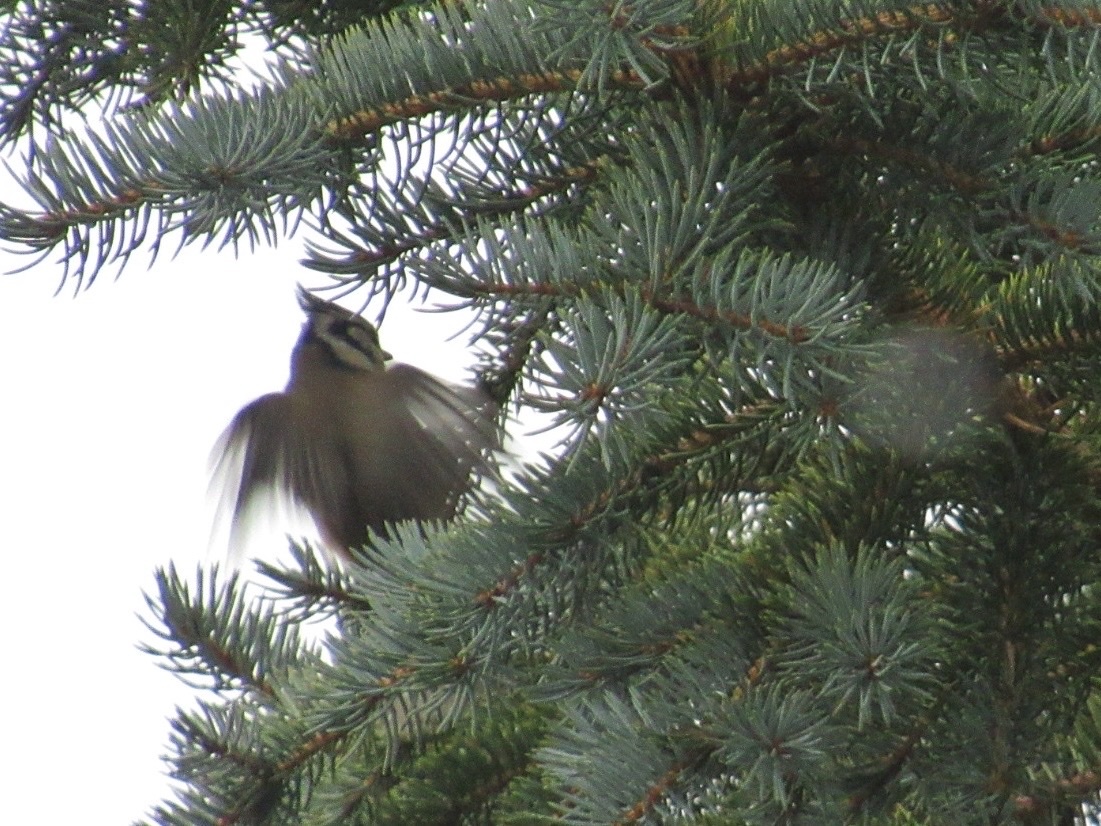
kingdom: Animalia
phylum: Chordata
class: Aves
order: Passeriformes
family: Paridae
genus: Lophophanes
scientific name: Lophophanes cristatus
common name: European crested tit
